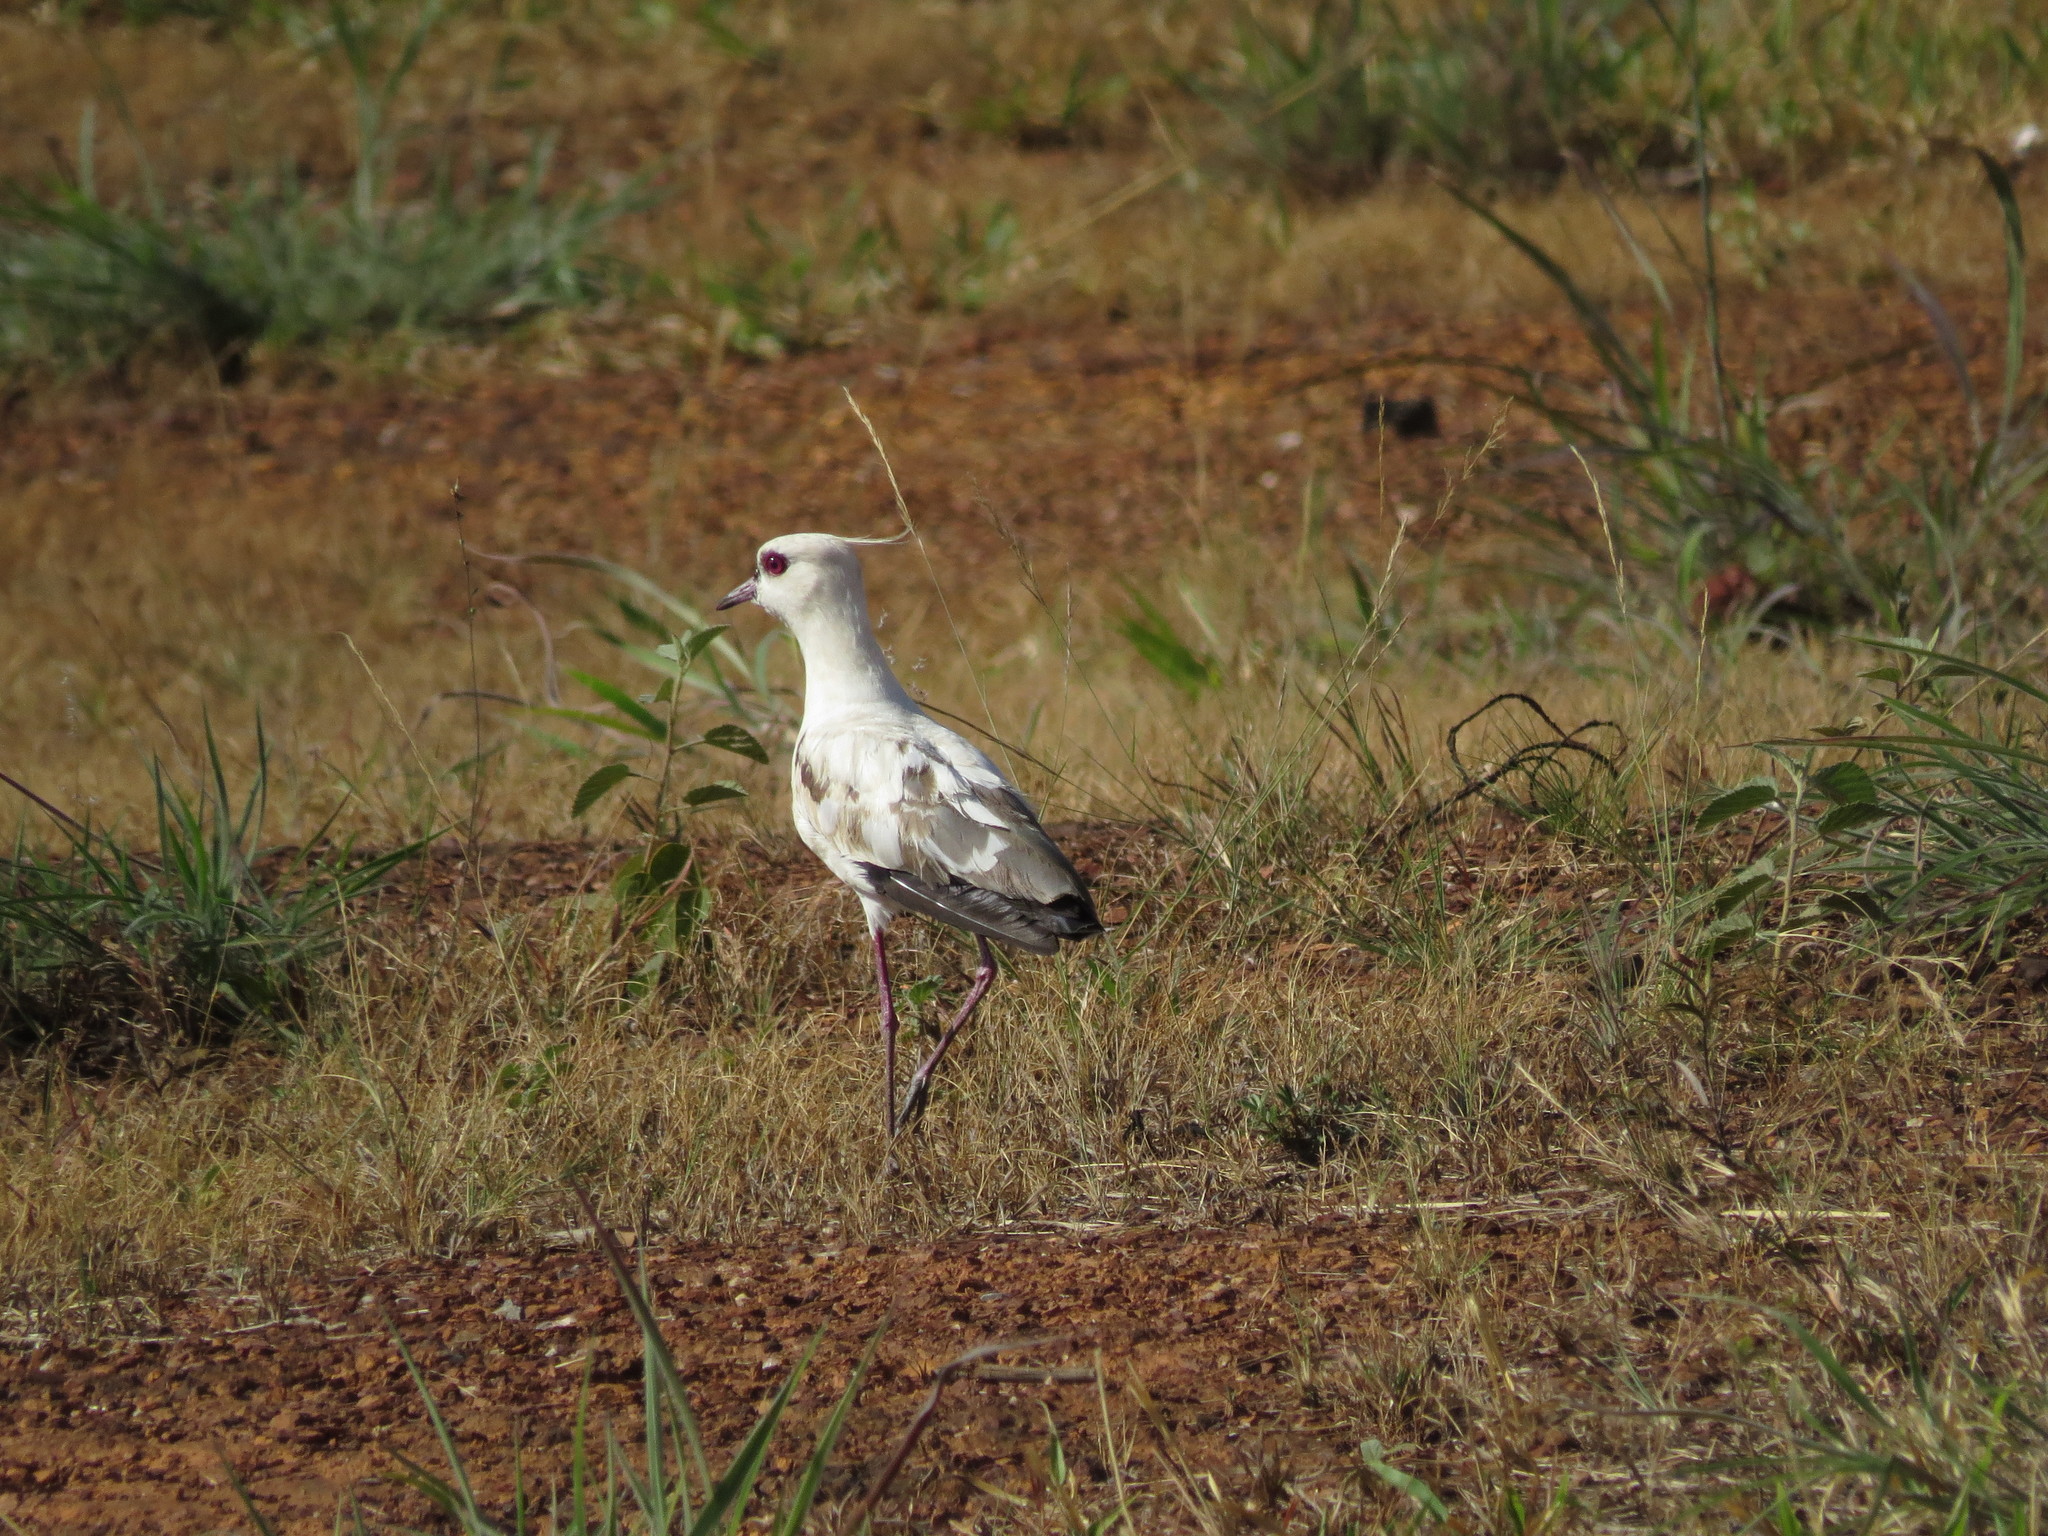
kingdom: Animalia
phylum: Chordata
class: Aves
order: Charadriiformes
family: Charadriidae
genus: Vanellus
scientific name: Vanellus chilensis
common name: Southern lapwing
